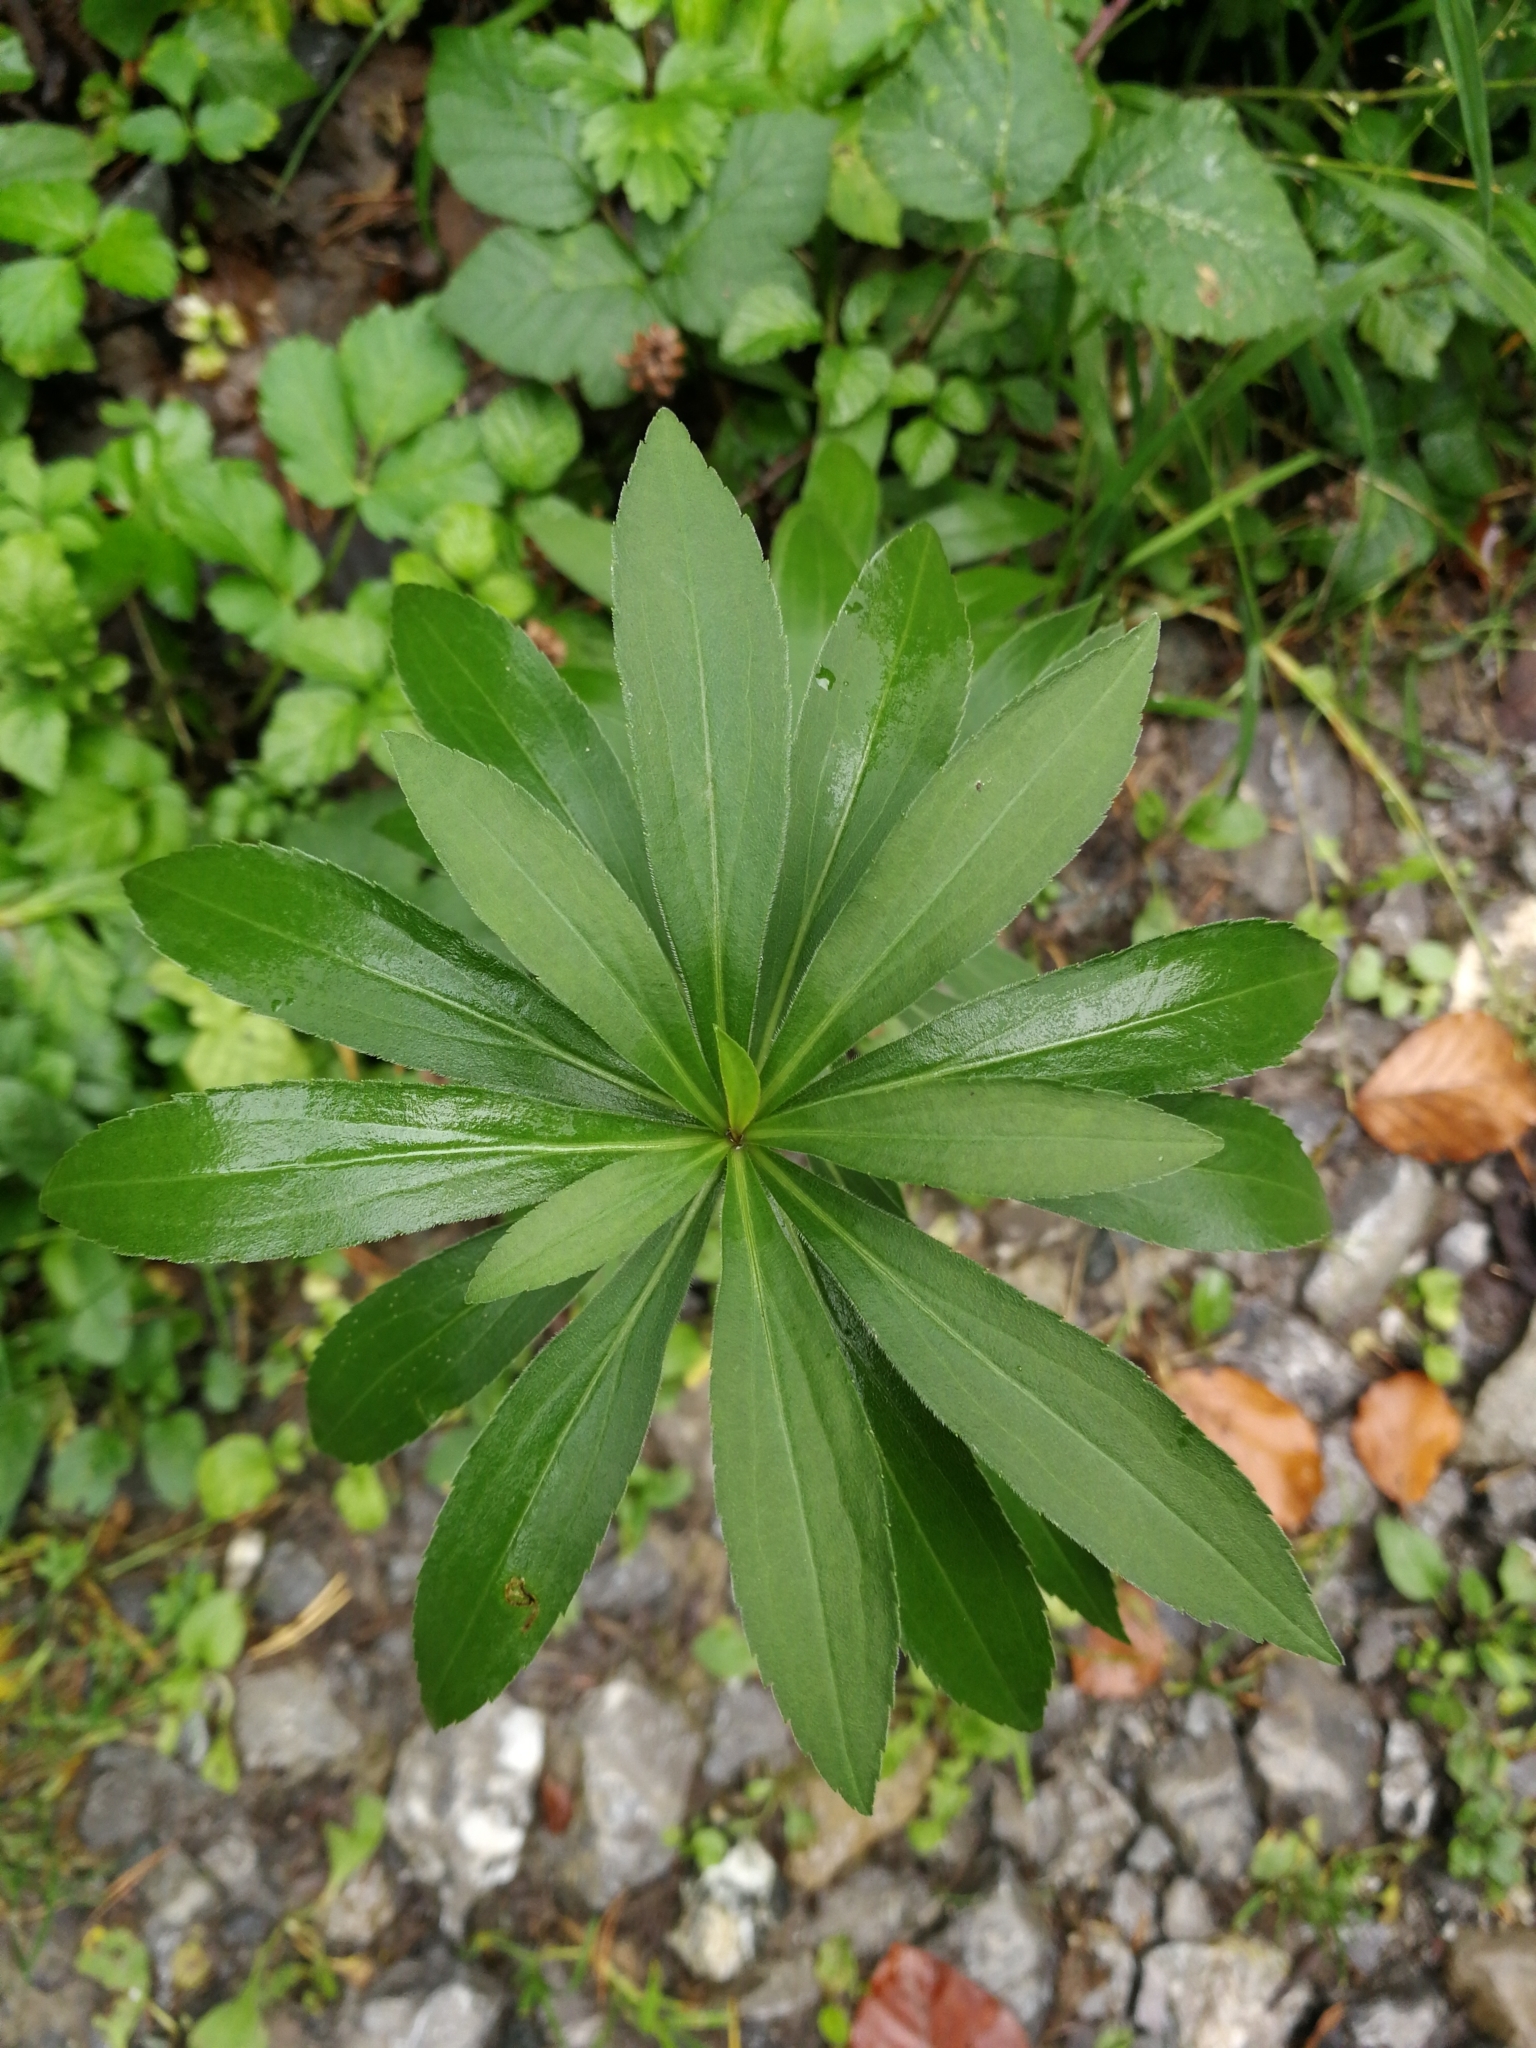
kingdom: Plantae
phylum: Tracheophyta
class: Liliopsida
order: Liliales
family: Liliaceae
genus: Lilium
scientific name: Lilium martagon
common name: Martagon lily
